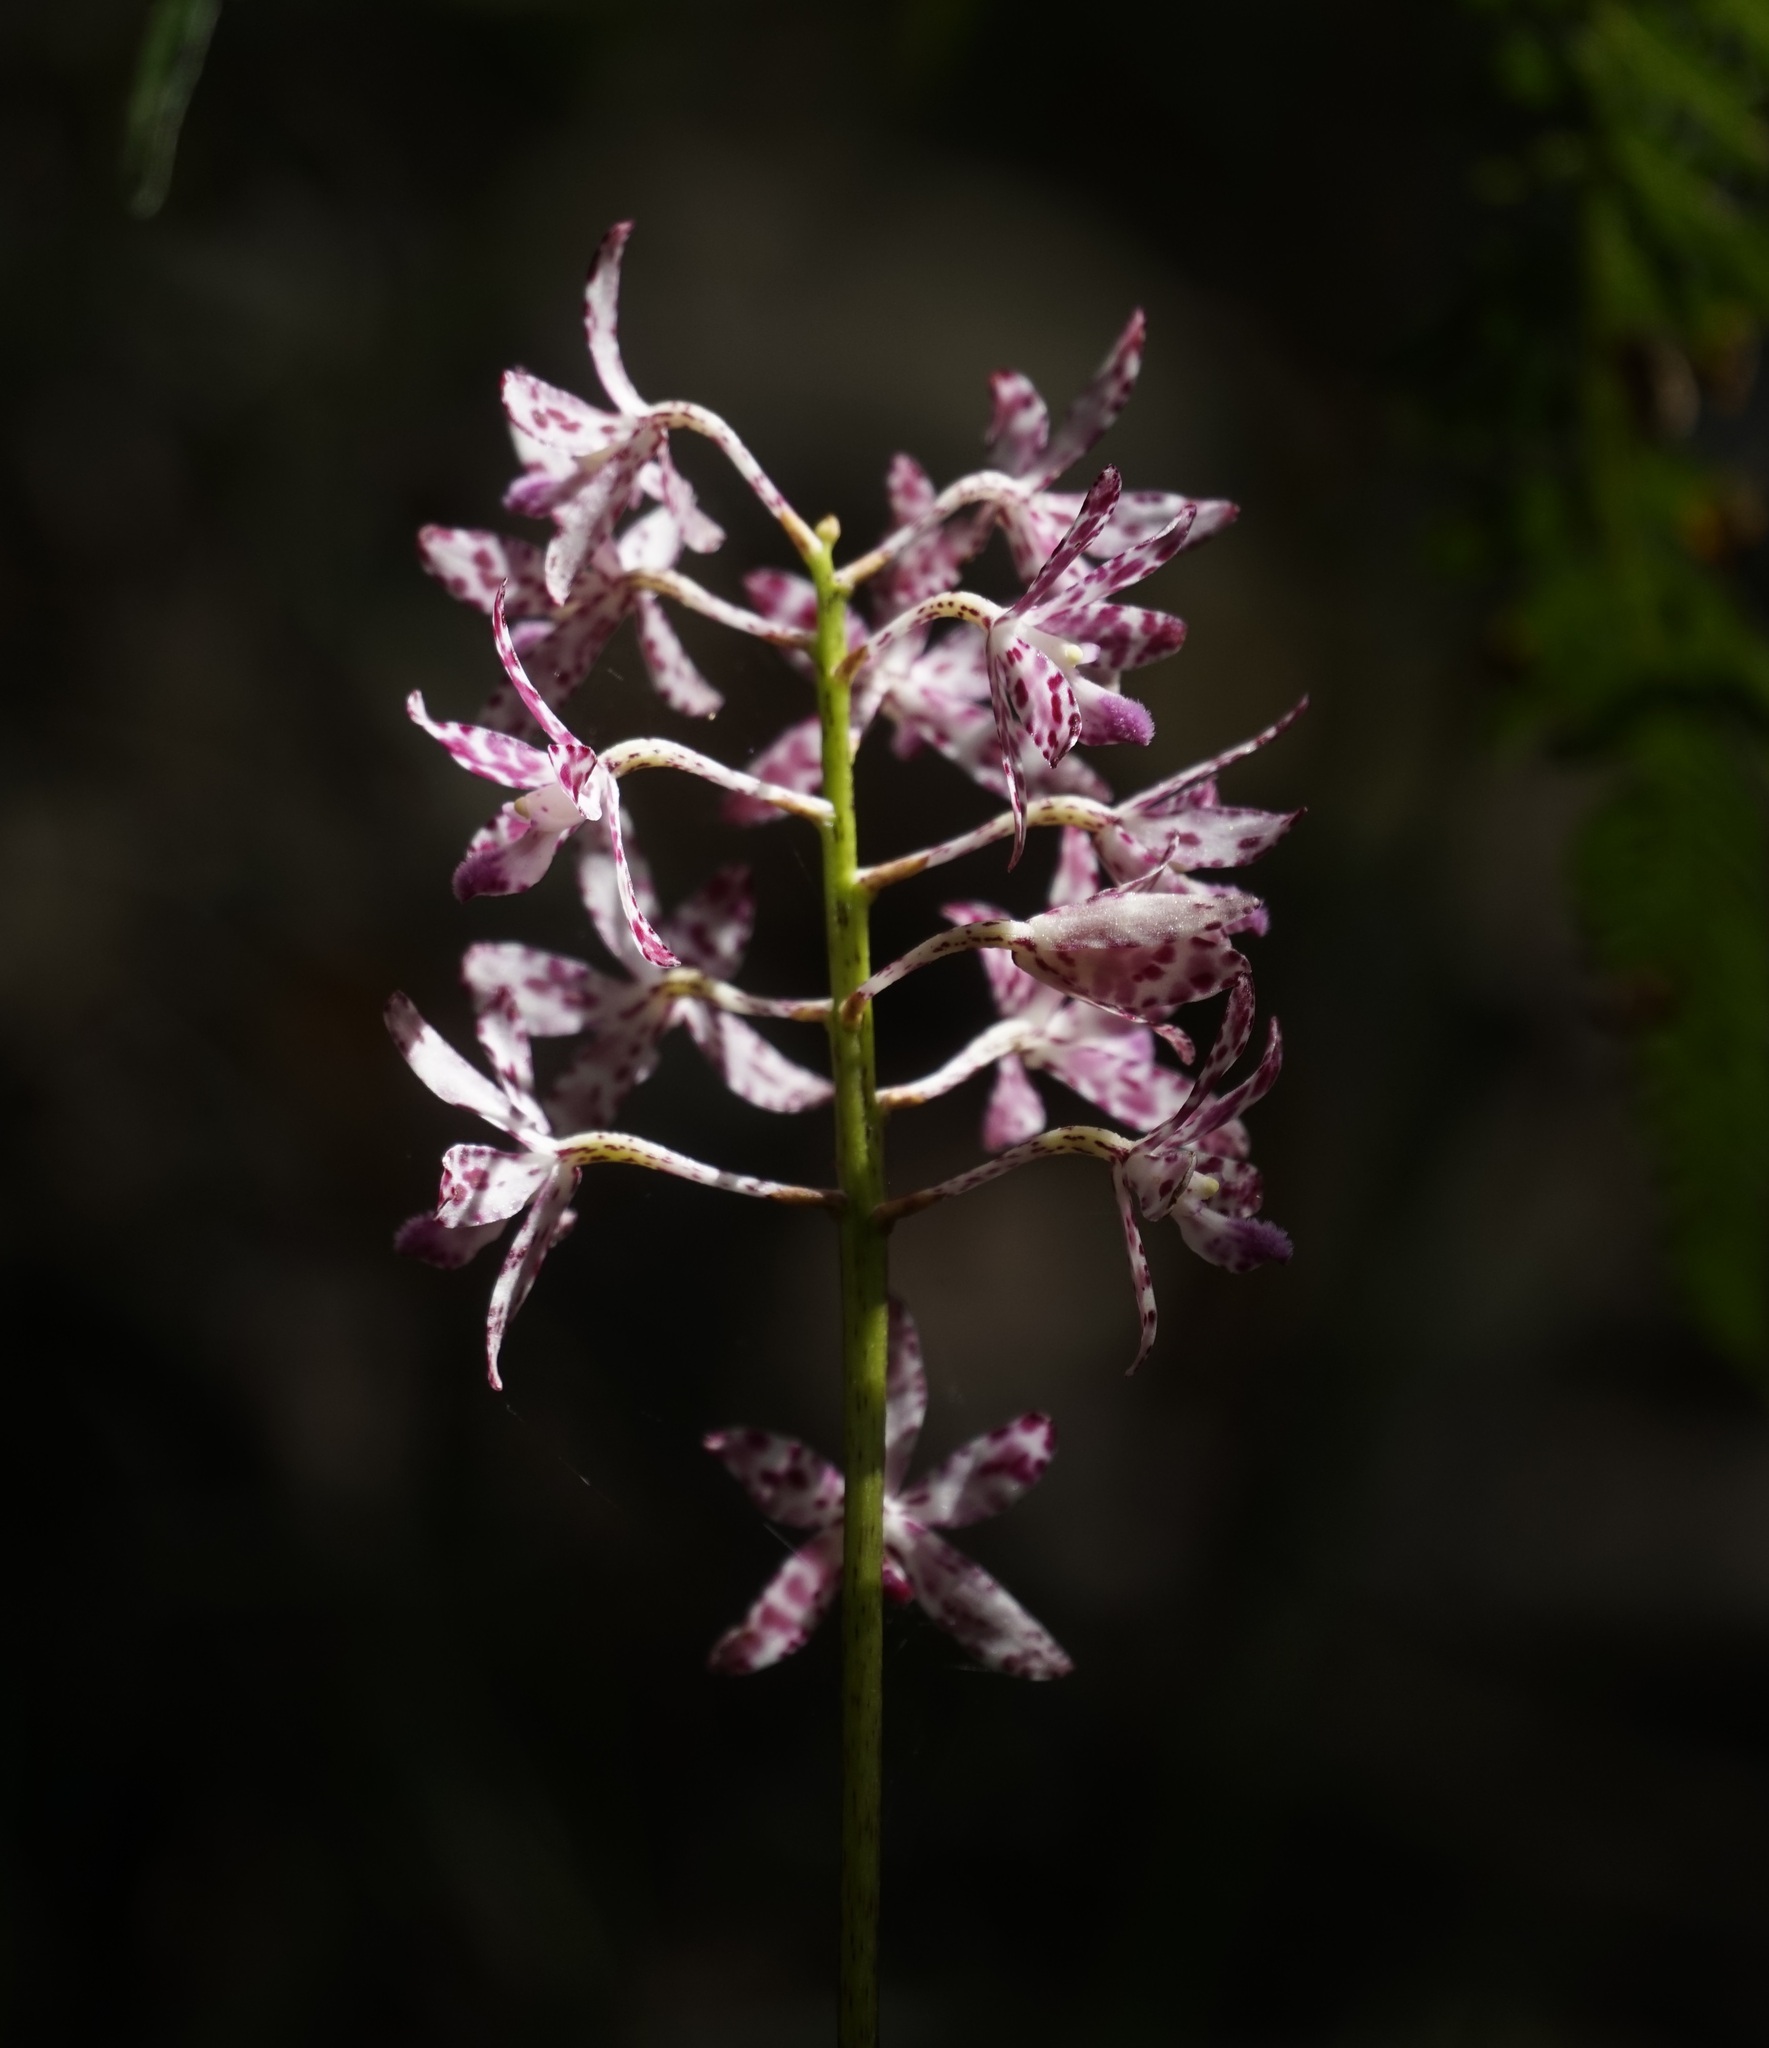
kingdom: Plantae
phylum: Tracheophyta
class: Liliopsida
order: Asparagales
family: Orchidaceae
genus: Dipodium
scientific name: Dipodium variegatum
